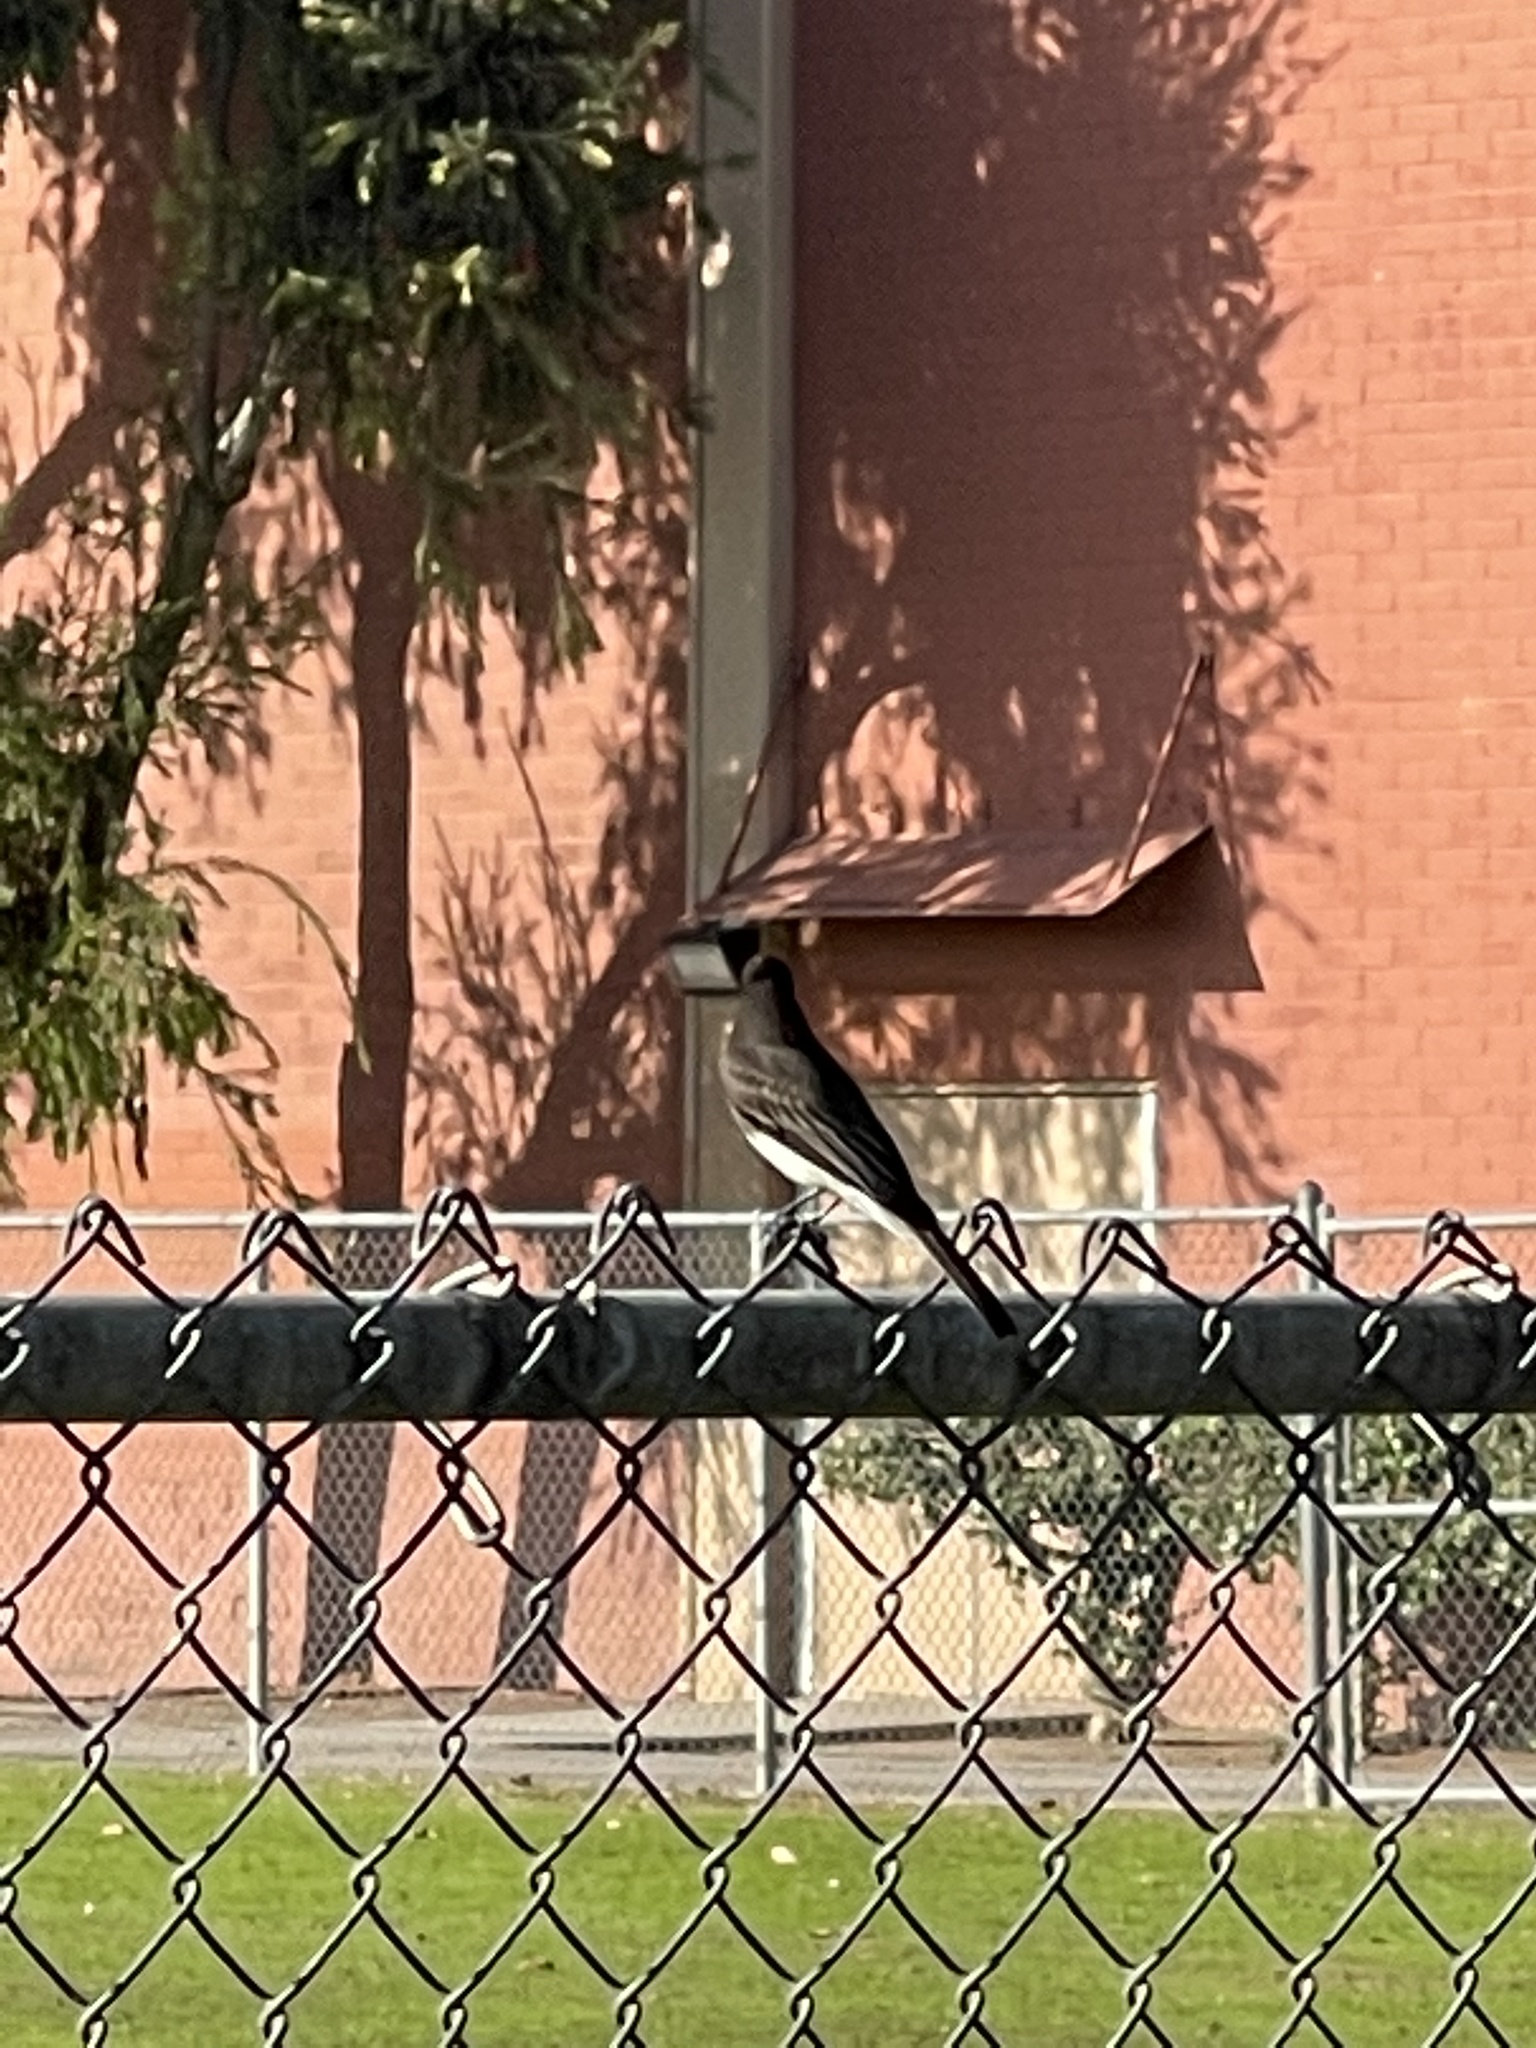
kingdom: Animalia
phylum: Chordata
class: Aves
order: Passeriformes
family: Tyrannidae
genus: Sayornis
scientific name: Sayornis nigricans
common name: Black phoebe
